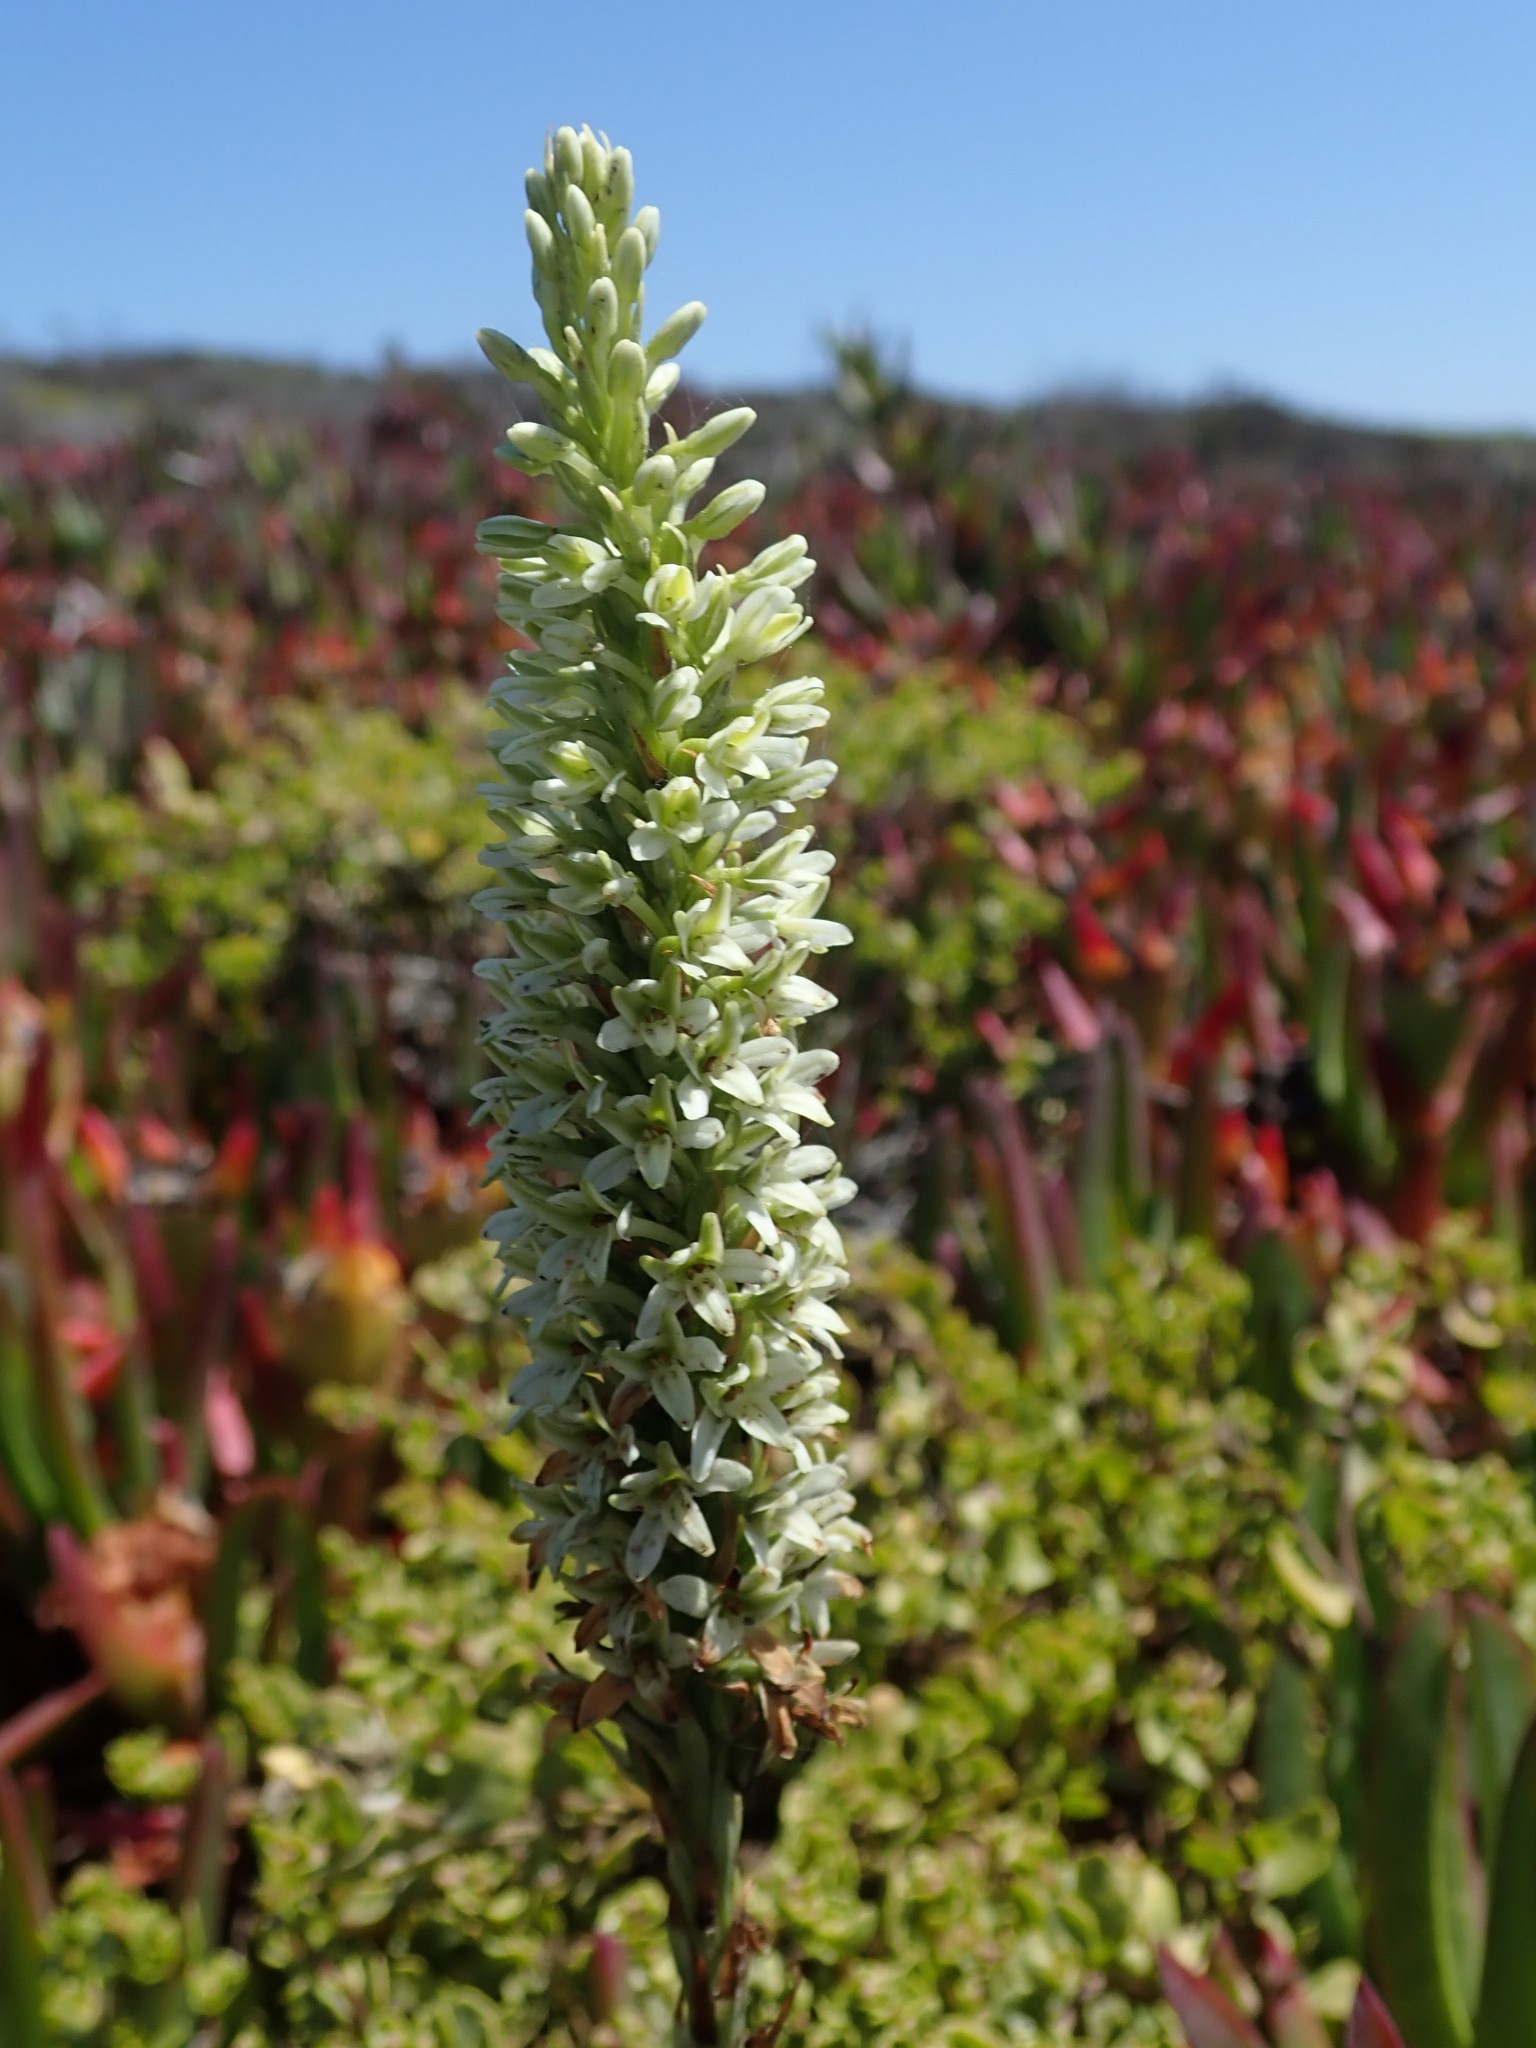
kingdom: Plantae
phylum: Tracheophyta
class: Liliopsida
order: Asparagales
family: Orchidaceae
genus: Platanthera
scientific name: Platanthera elegans
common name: Coast piperia
